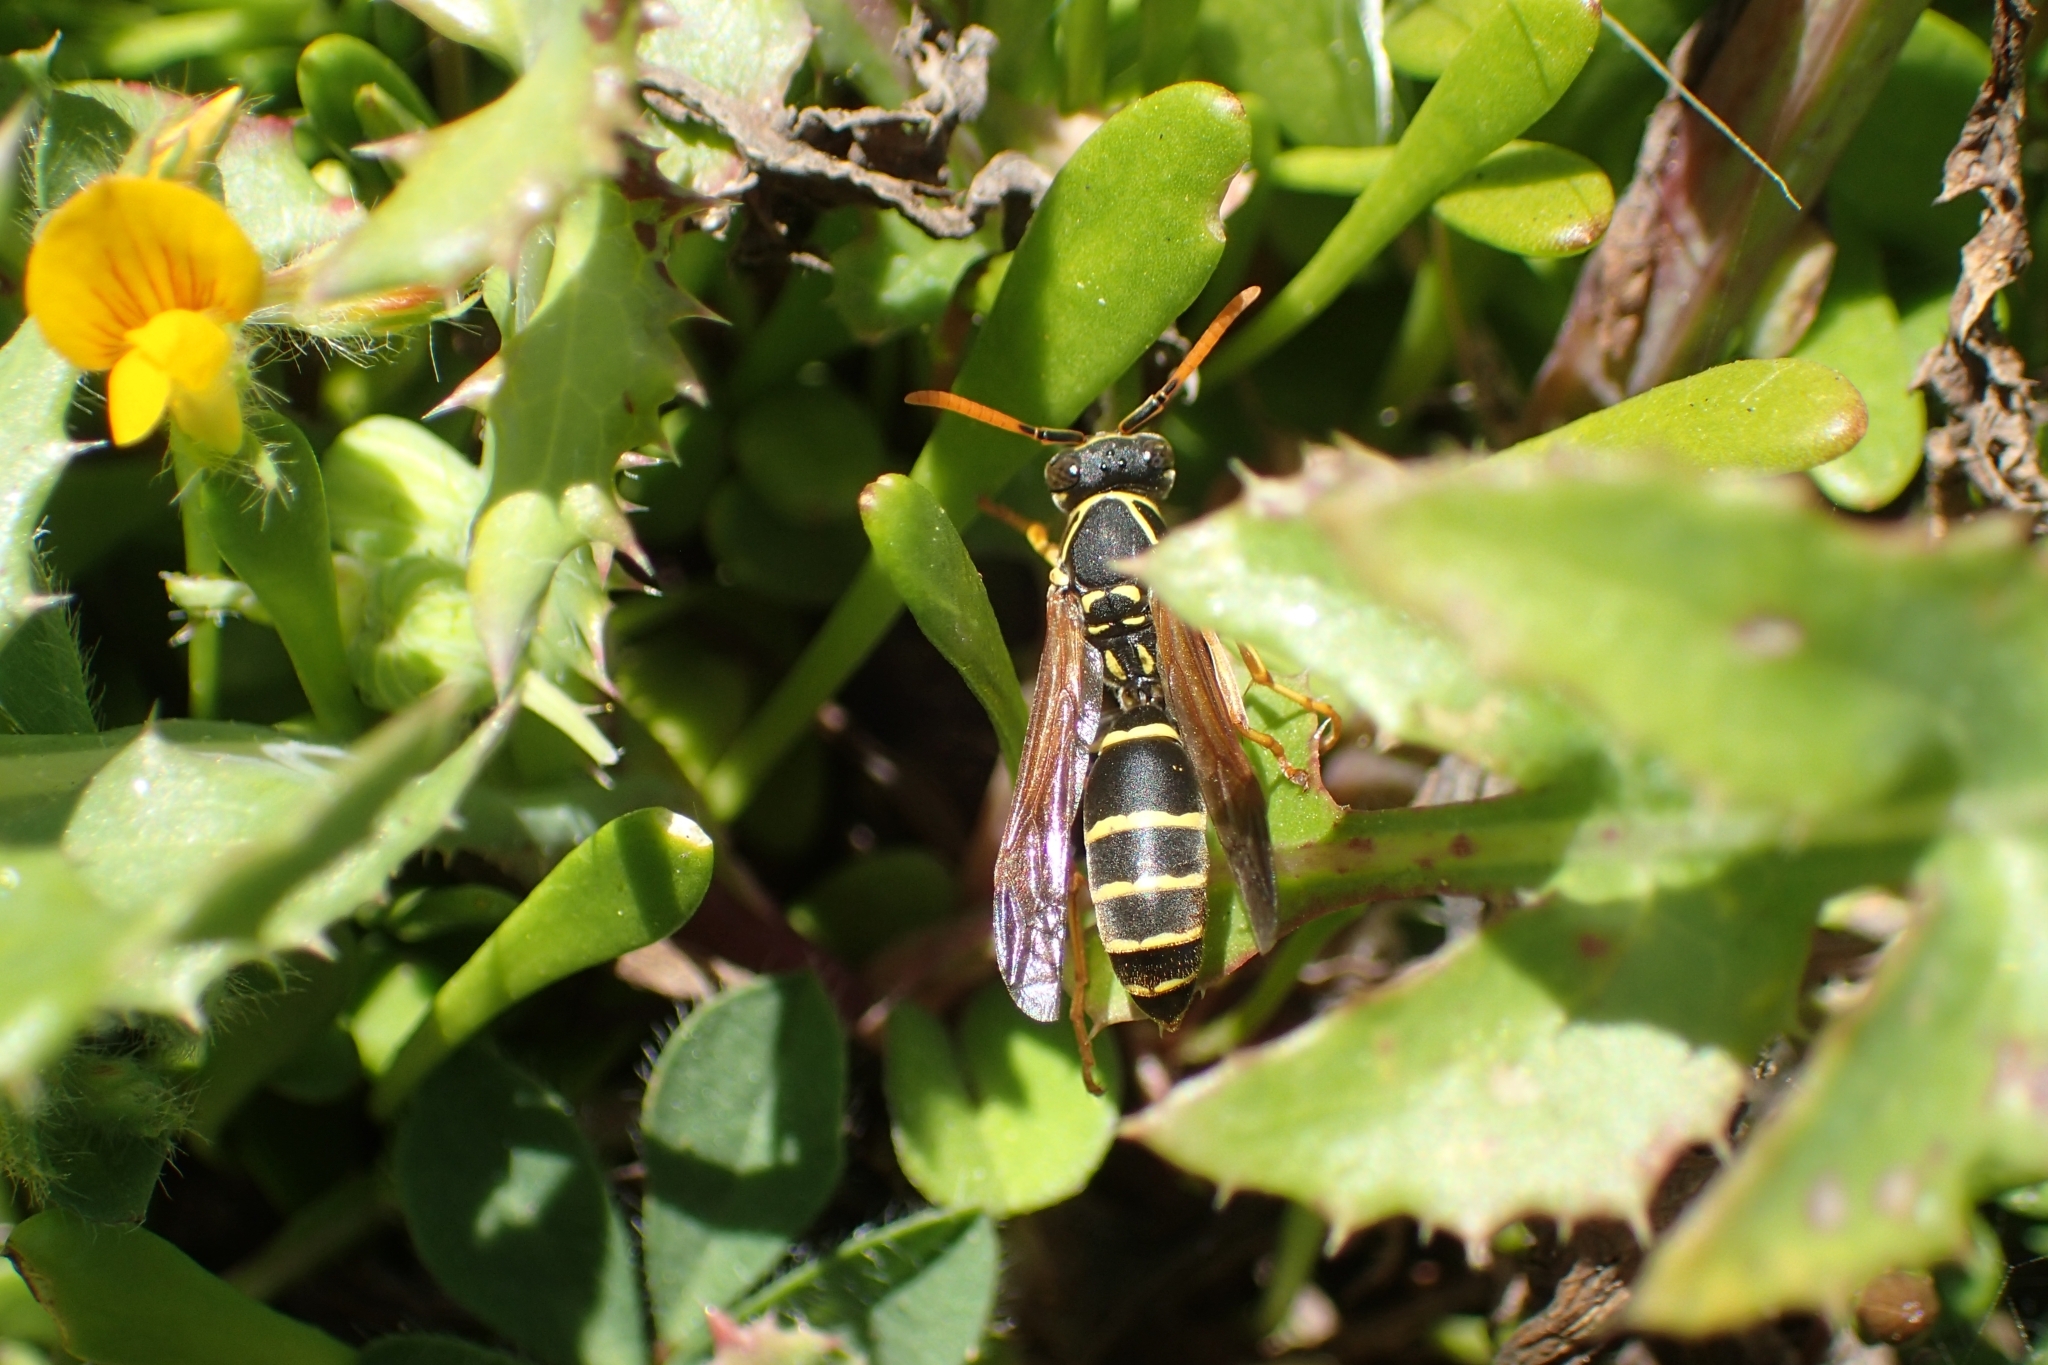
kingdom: Animalia
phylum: Arthropoda
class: Insecta
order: Hymenoptera
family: Eumenidae
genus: Polistes
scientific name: Polistes chinensis
